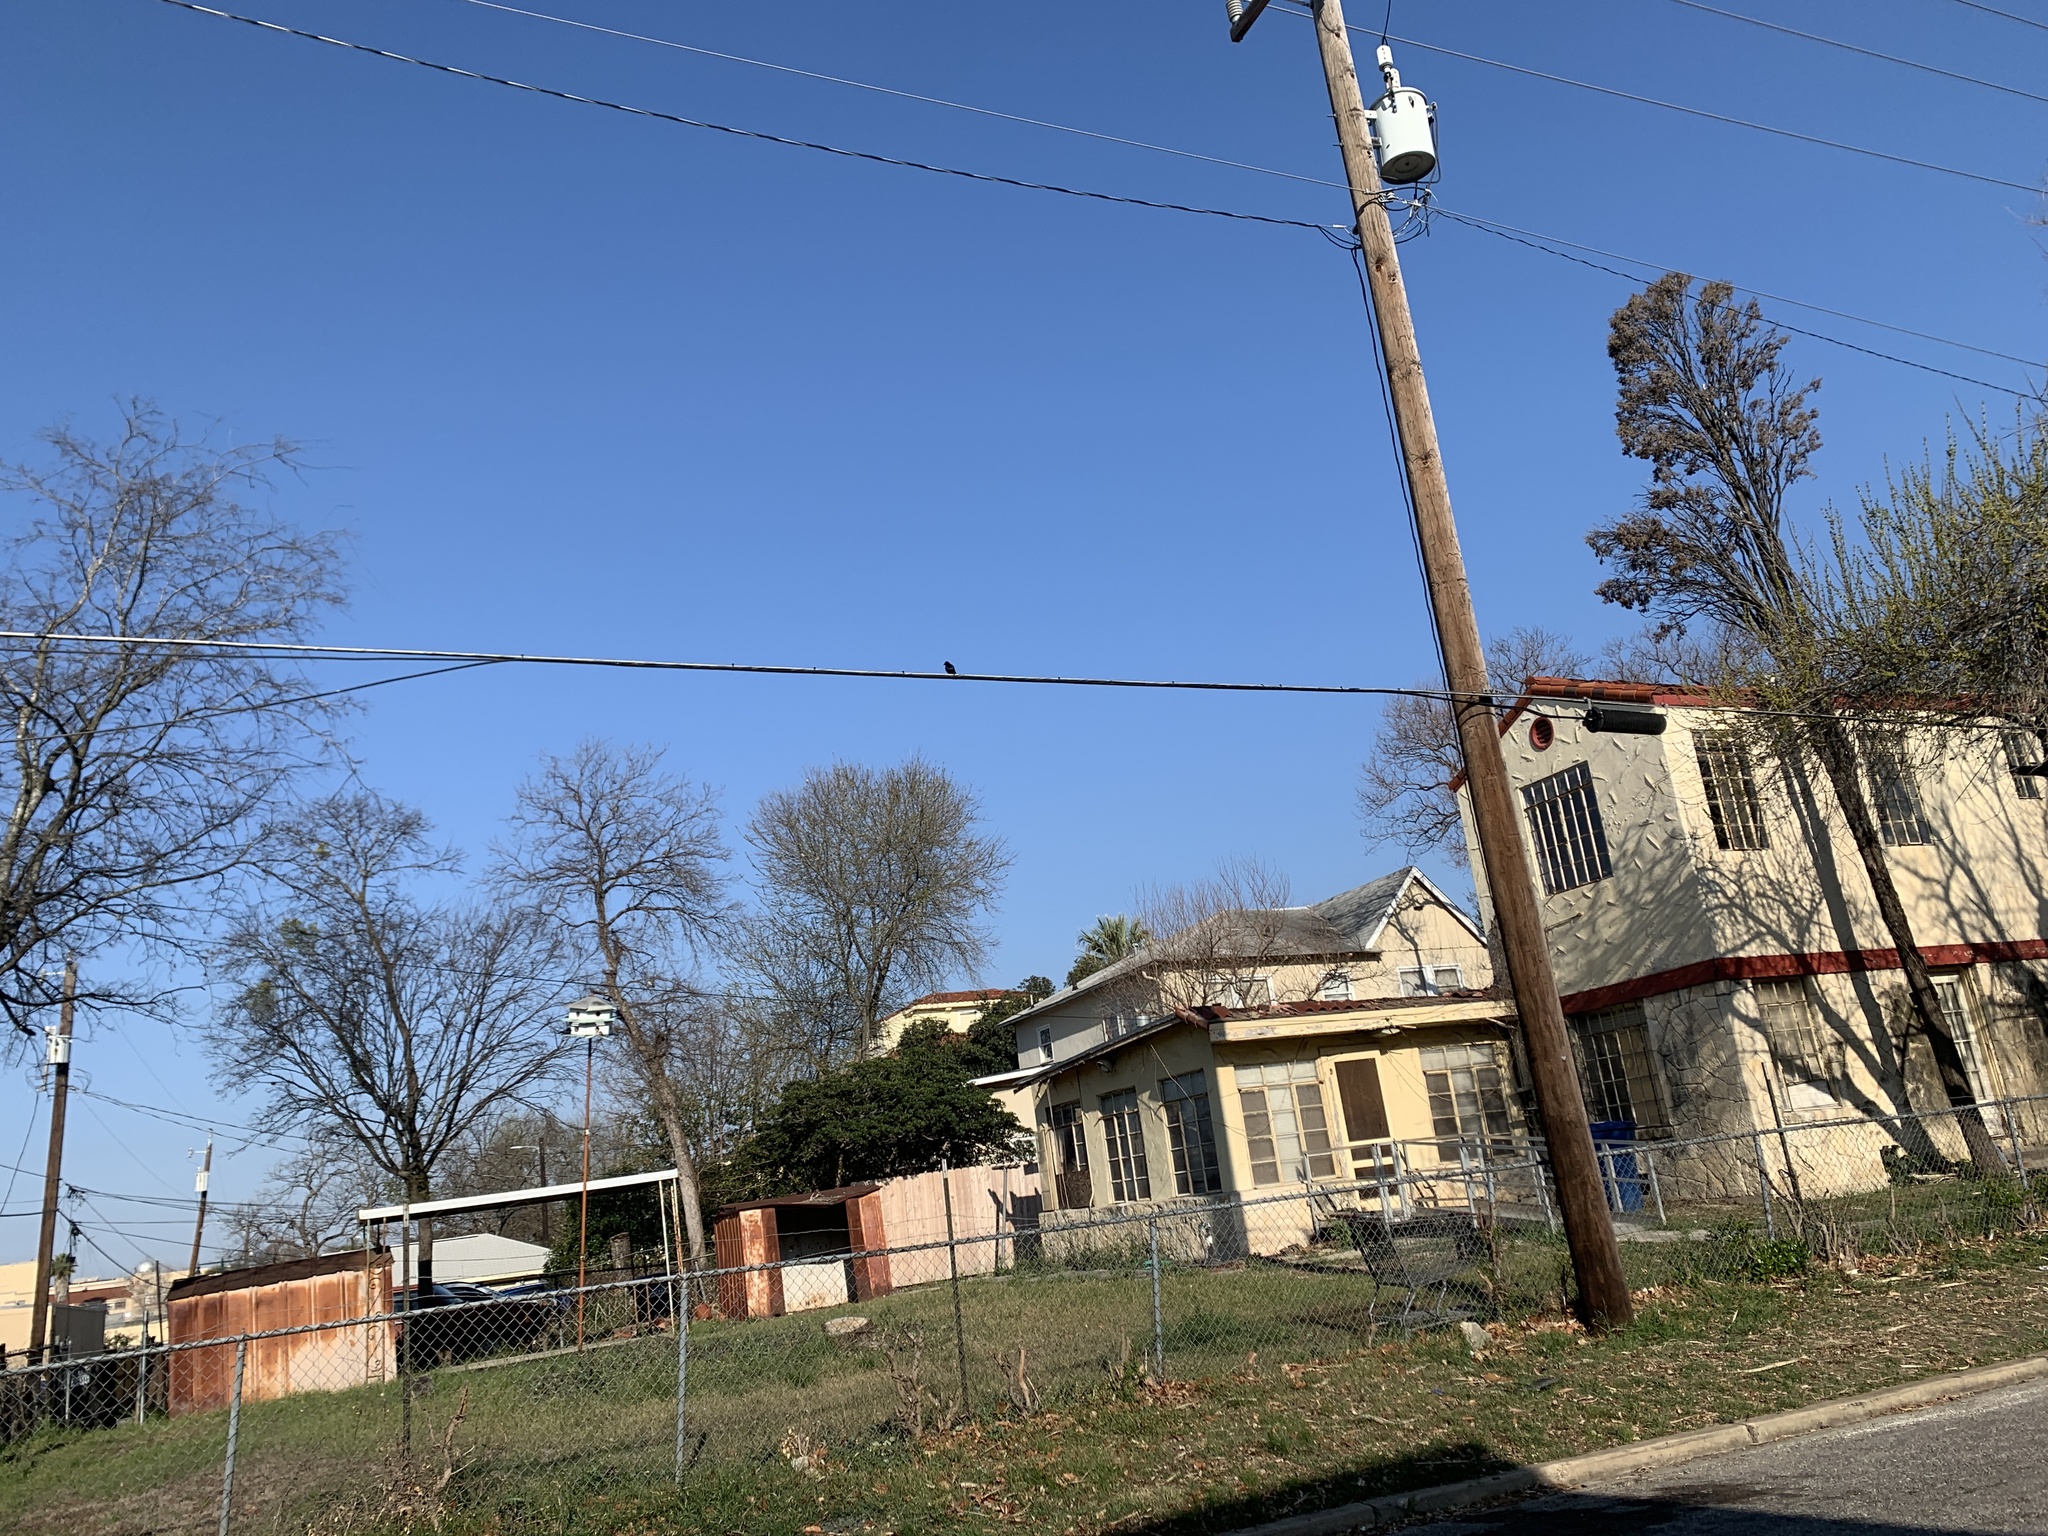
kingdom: Animalia
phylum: Chordata
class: Aves
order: Passeriformes
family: Hirundinidae
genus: Progne
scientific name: Progne subis
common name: Purple martin
